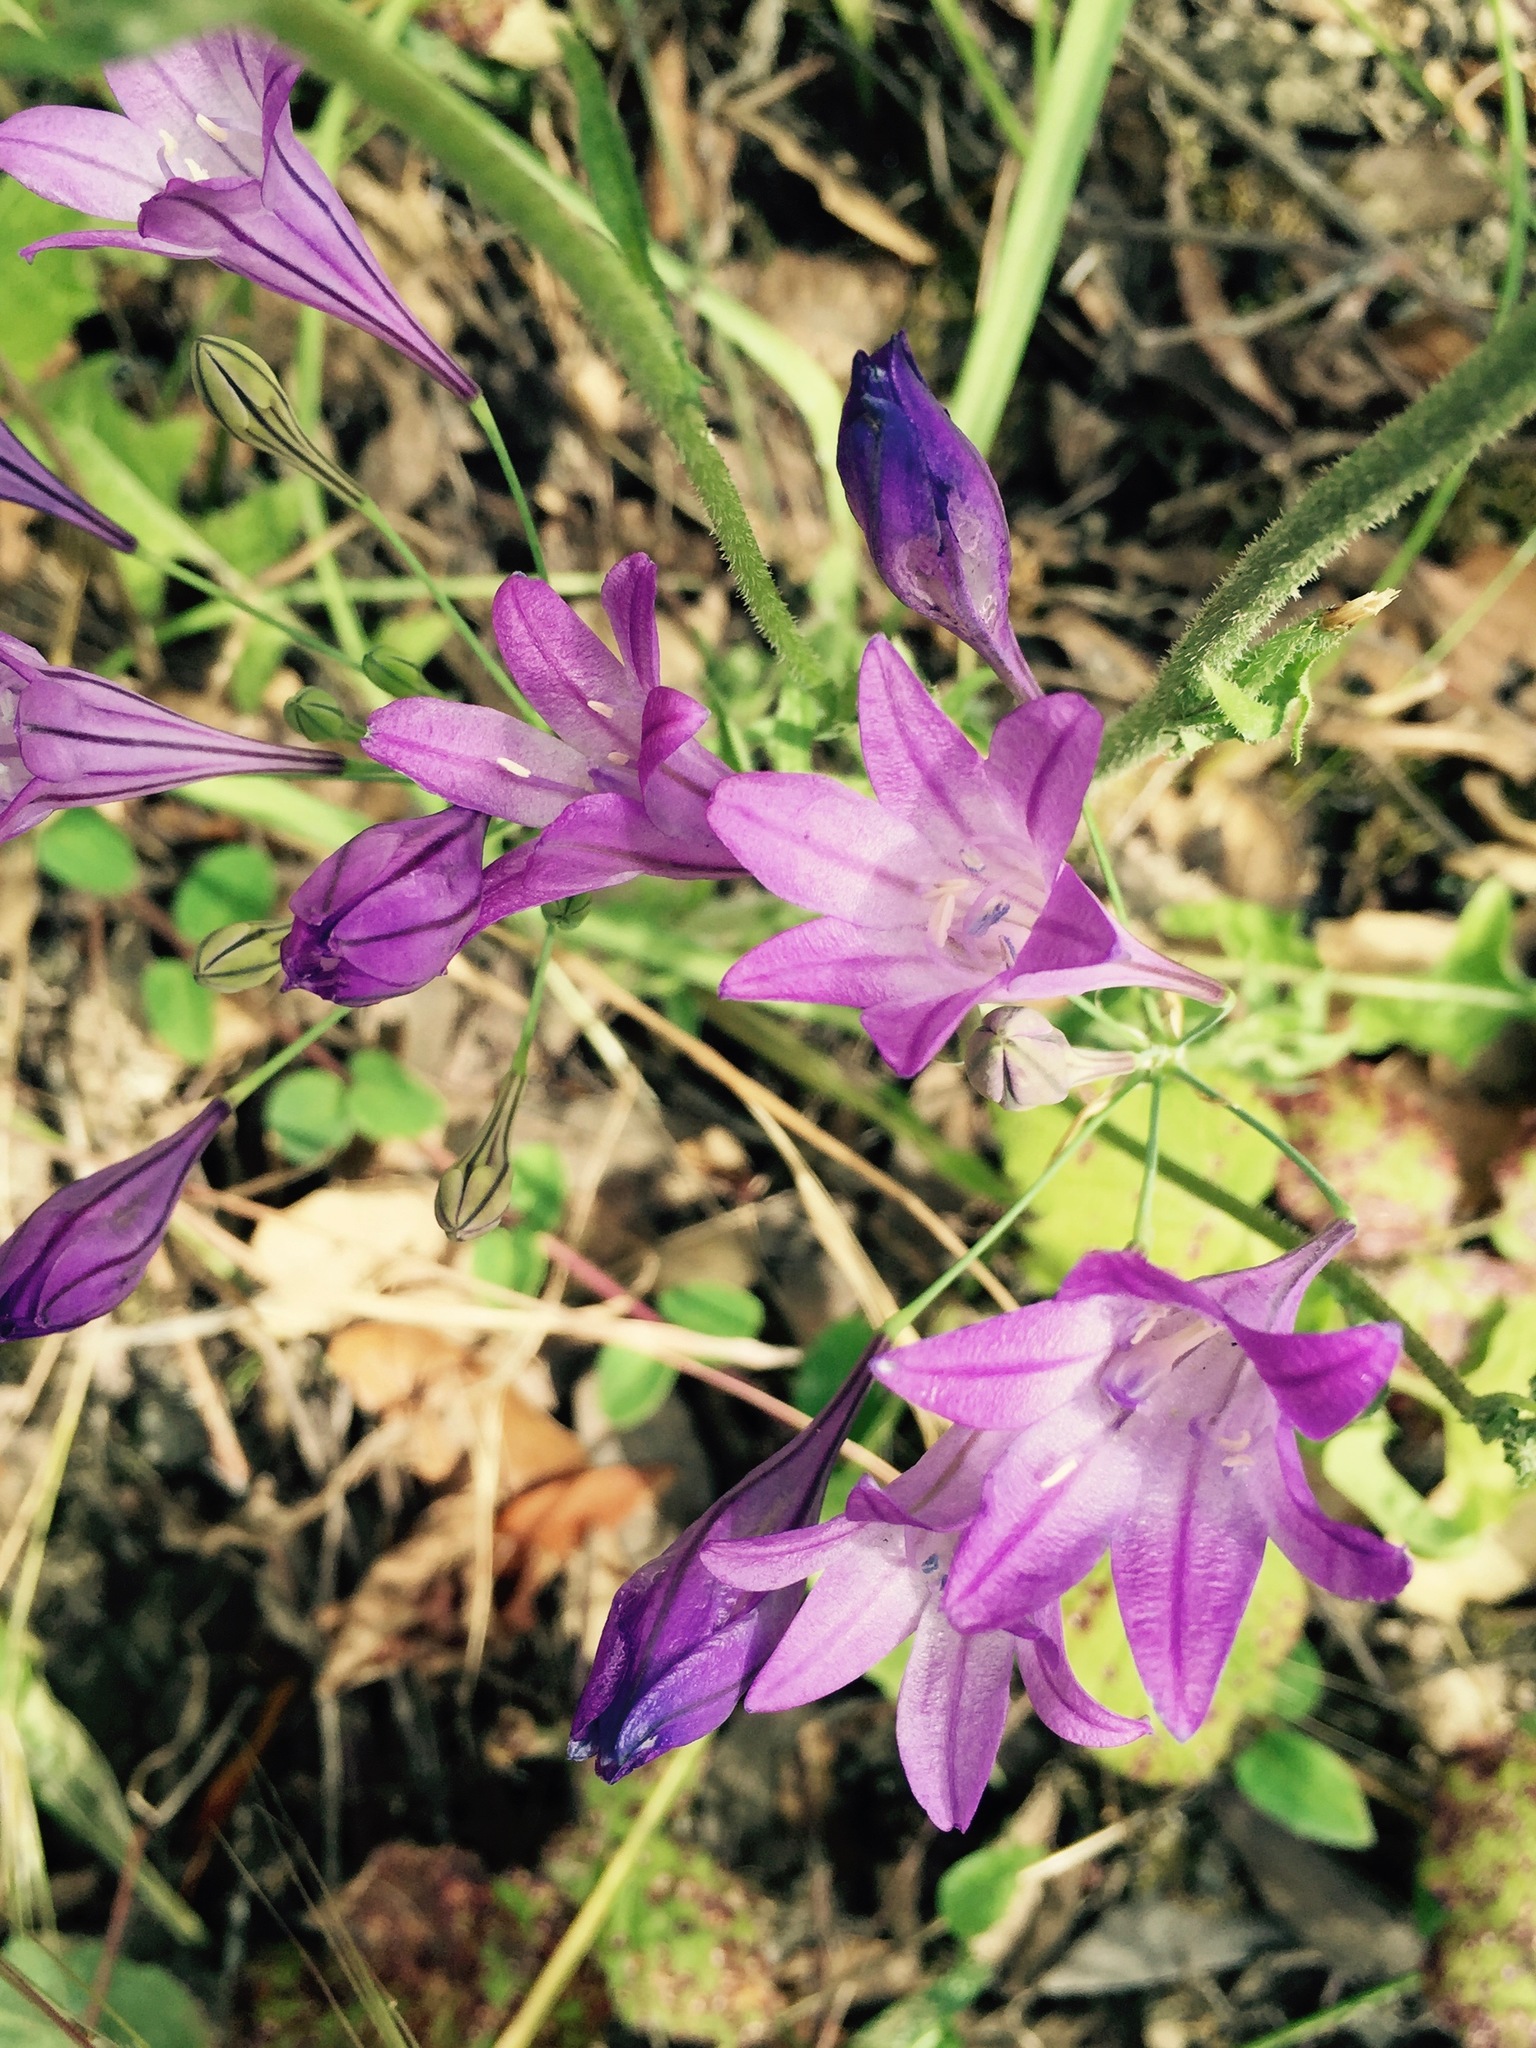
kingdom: Plantae
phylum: Tracheophyta
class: Liliopsida
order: Asparagales
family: Asparagaceae
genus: Triteleia
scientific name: Triteleia laxa
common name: Triplet-lily
